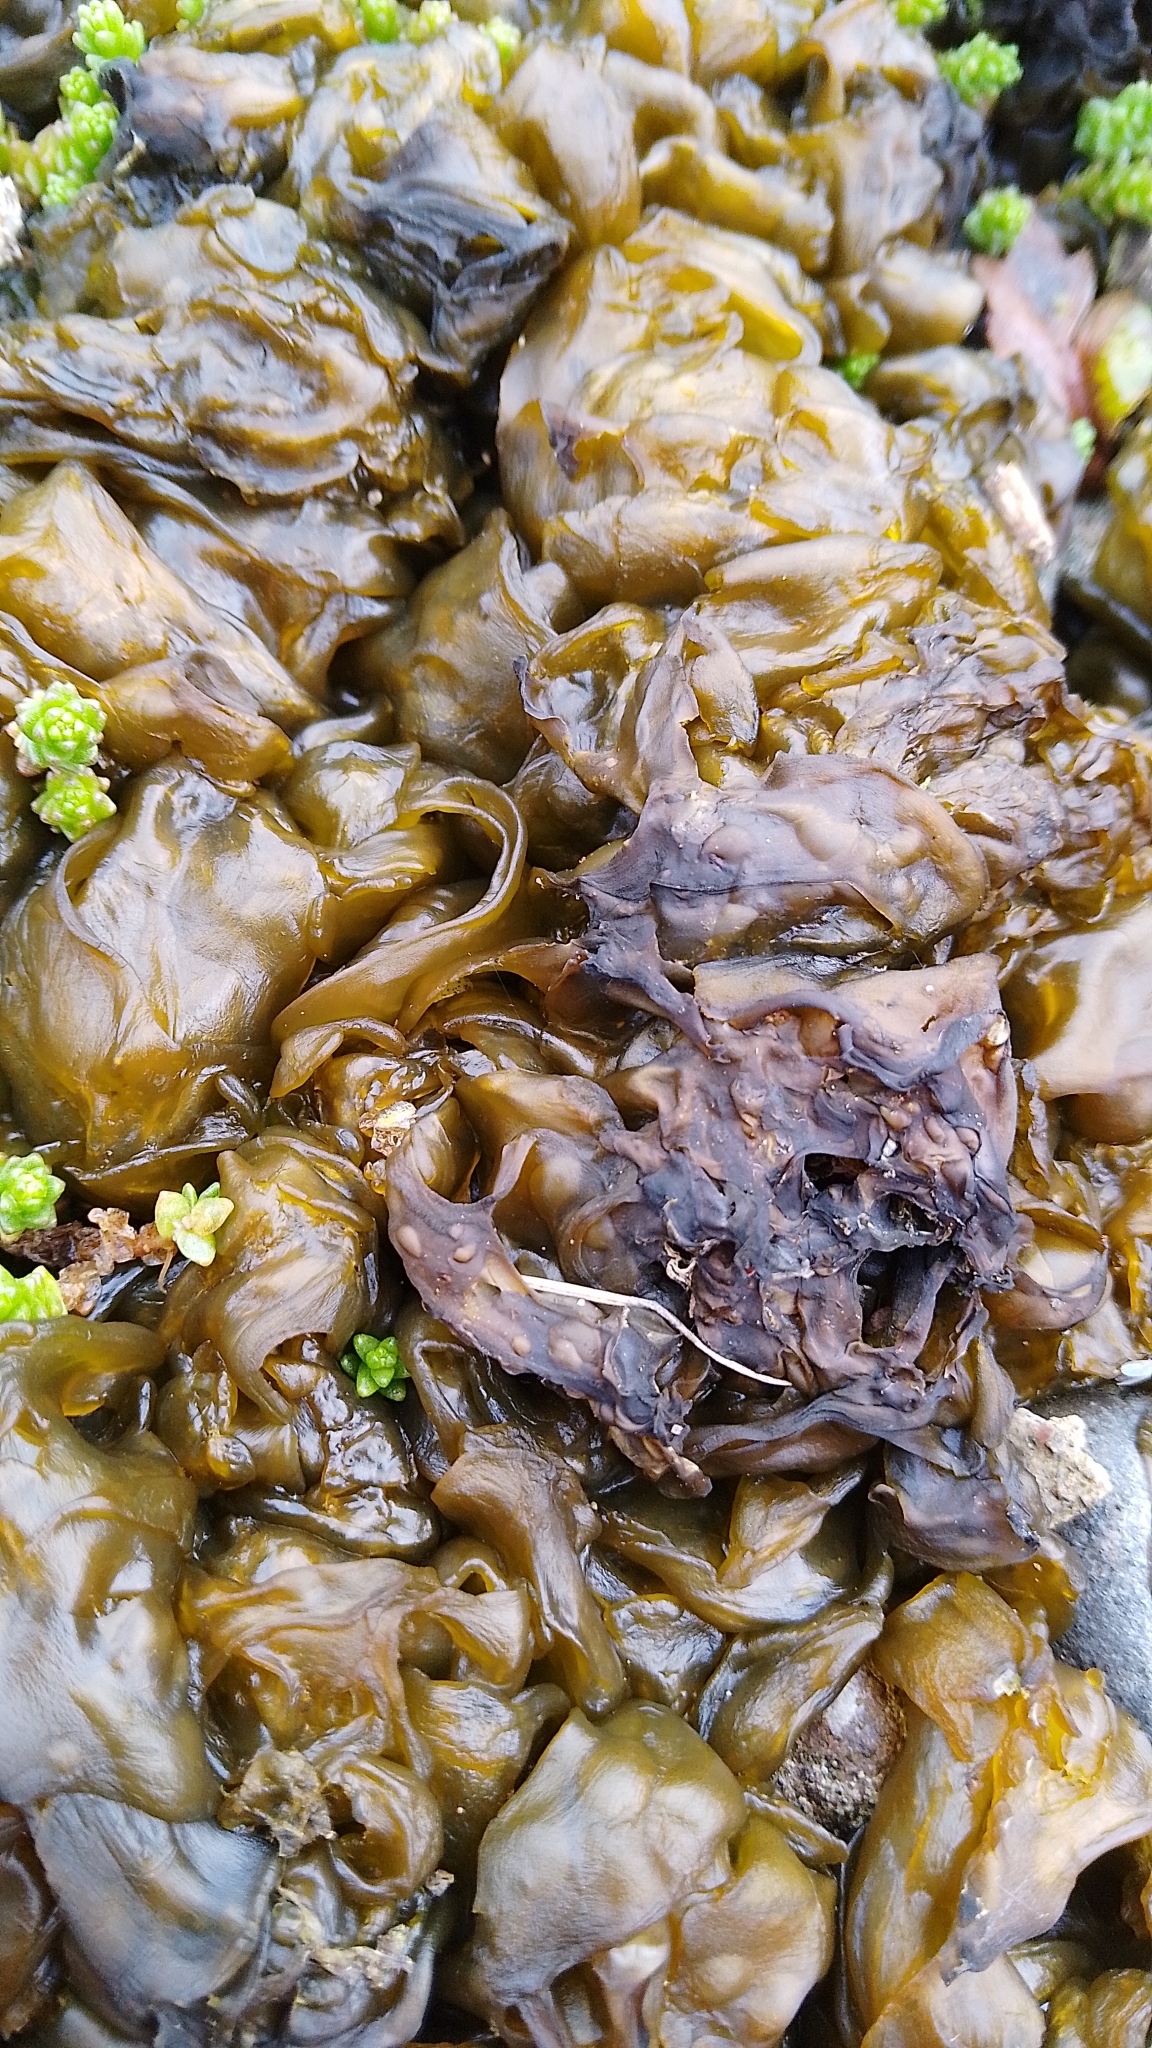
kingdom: Bacteria
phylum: Cyanobacteria
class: Cyanobacteriia
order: Cyanobacteriales
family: Nostocaceae
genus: Nostoc
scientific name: Nostoc commune
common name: Star jelly
